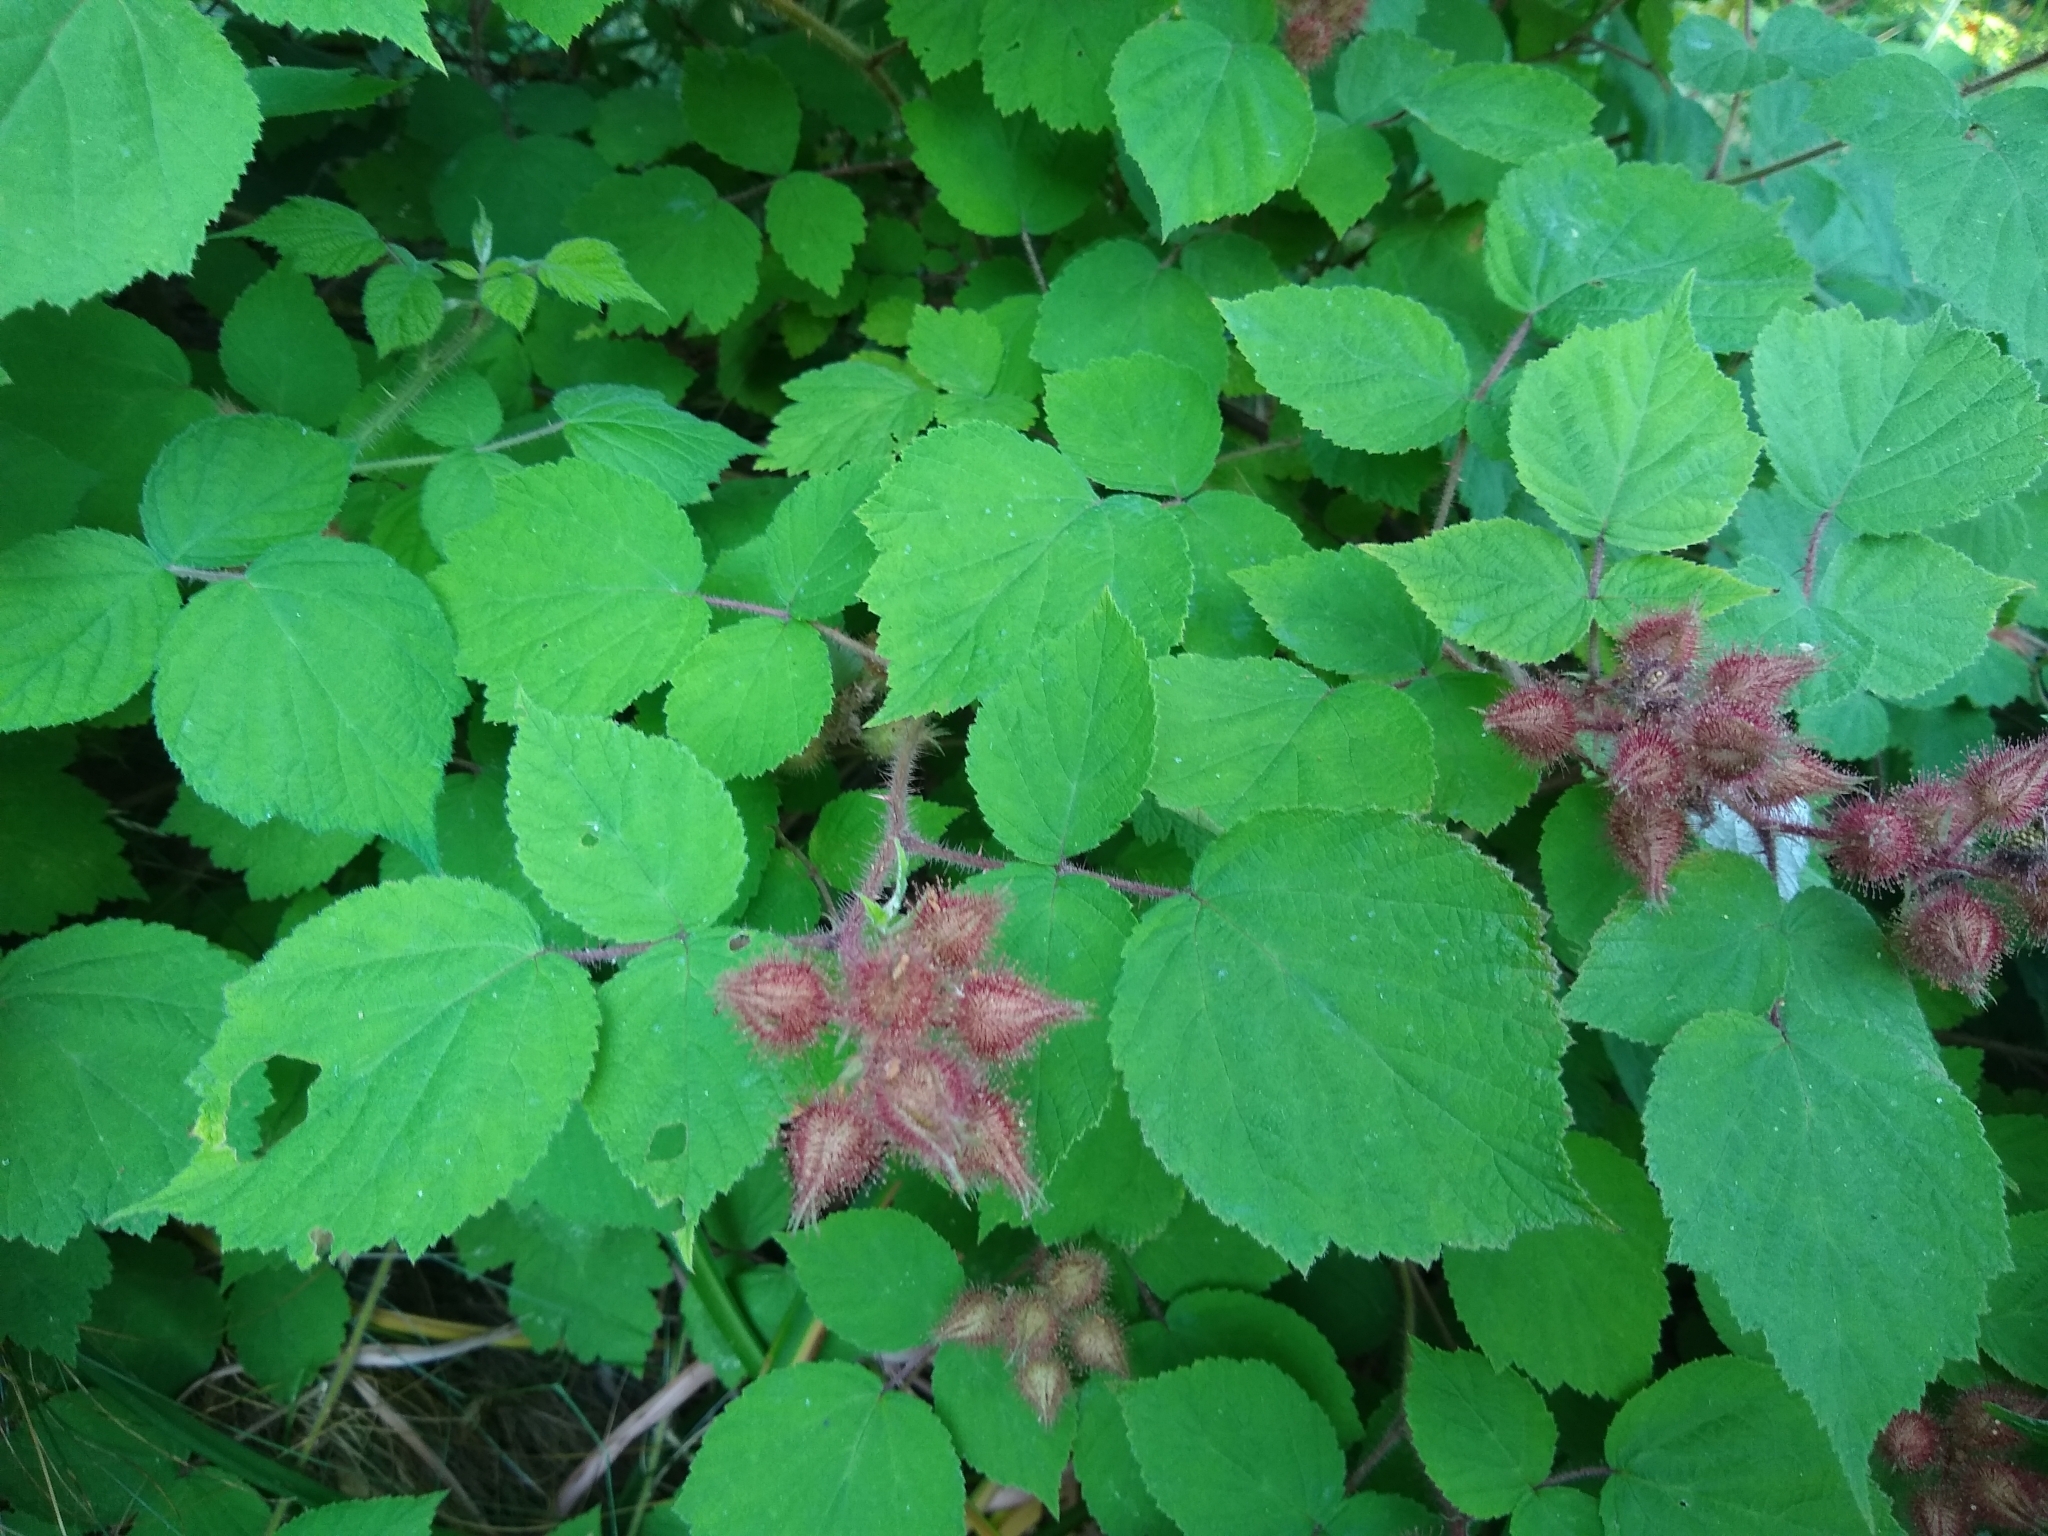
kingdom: Plantae
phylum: Tracheophyta
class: Magnoliopsida
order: Rosales
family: Rosaceae
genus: Rubus
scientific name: Rubus phoenicolasius
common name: Japanese wineberry
